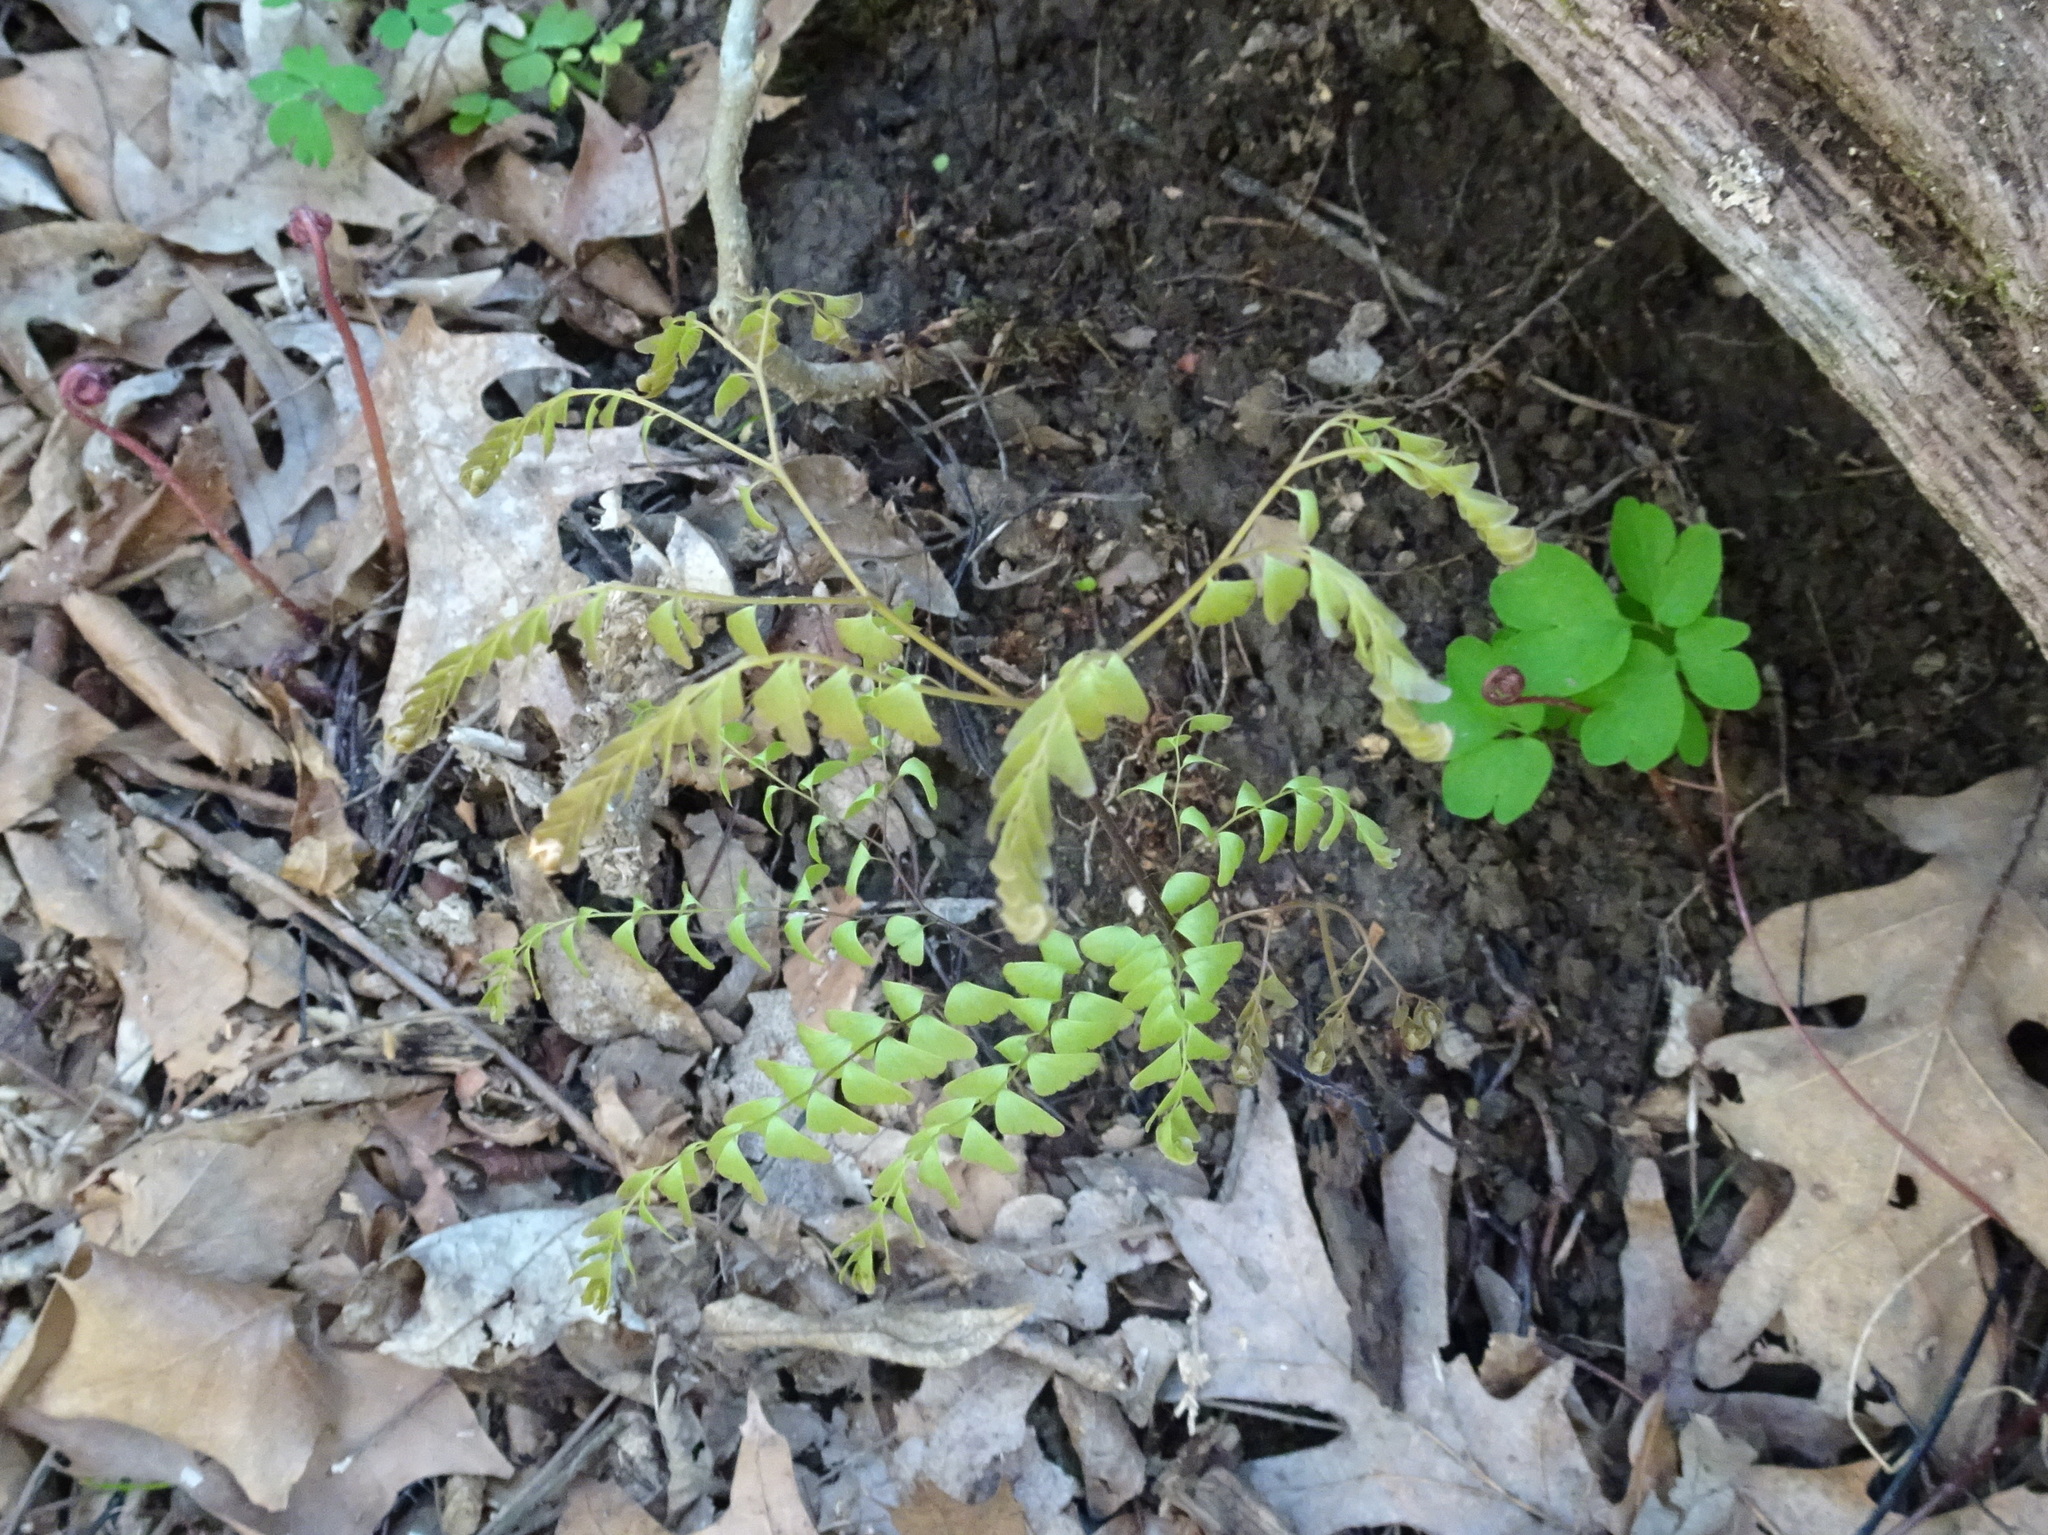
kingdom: Plantae
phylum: Tracheophyta
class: Polypodiopsida
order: Polypodiales
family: Pteridaceae
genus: Adiantum
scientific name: Adiantum pedatum
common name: Five-finger fern
